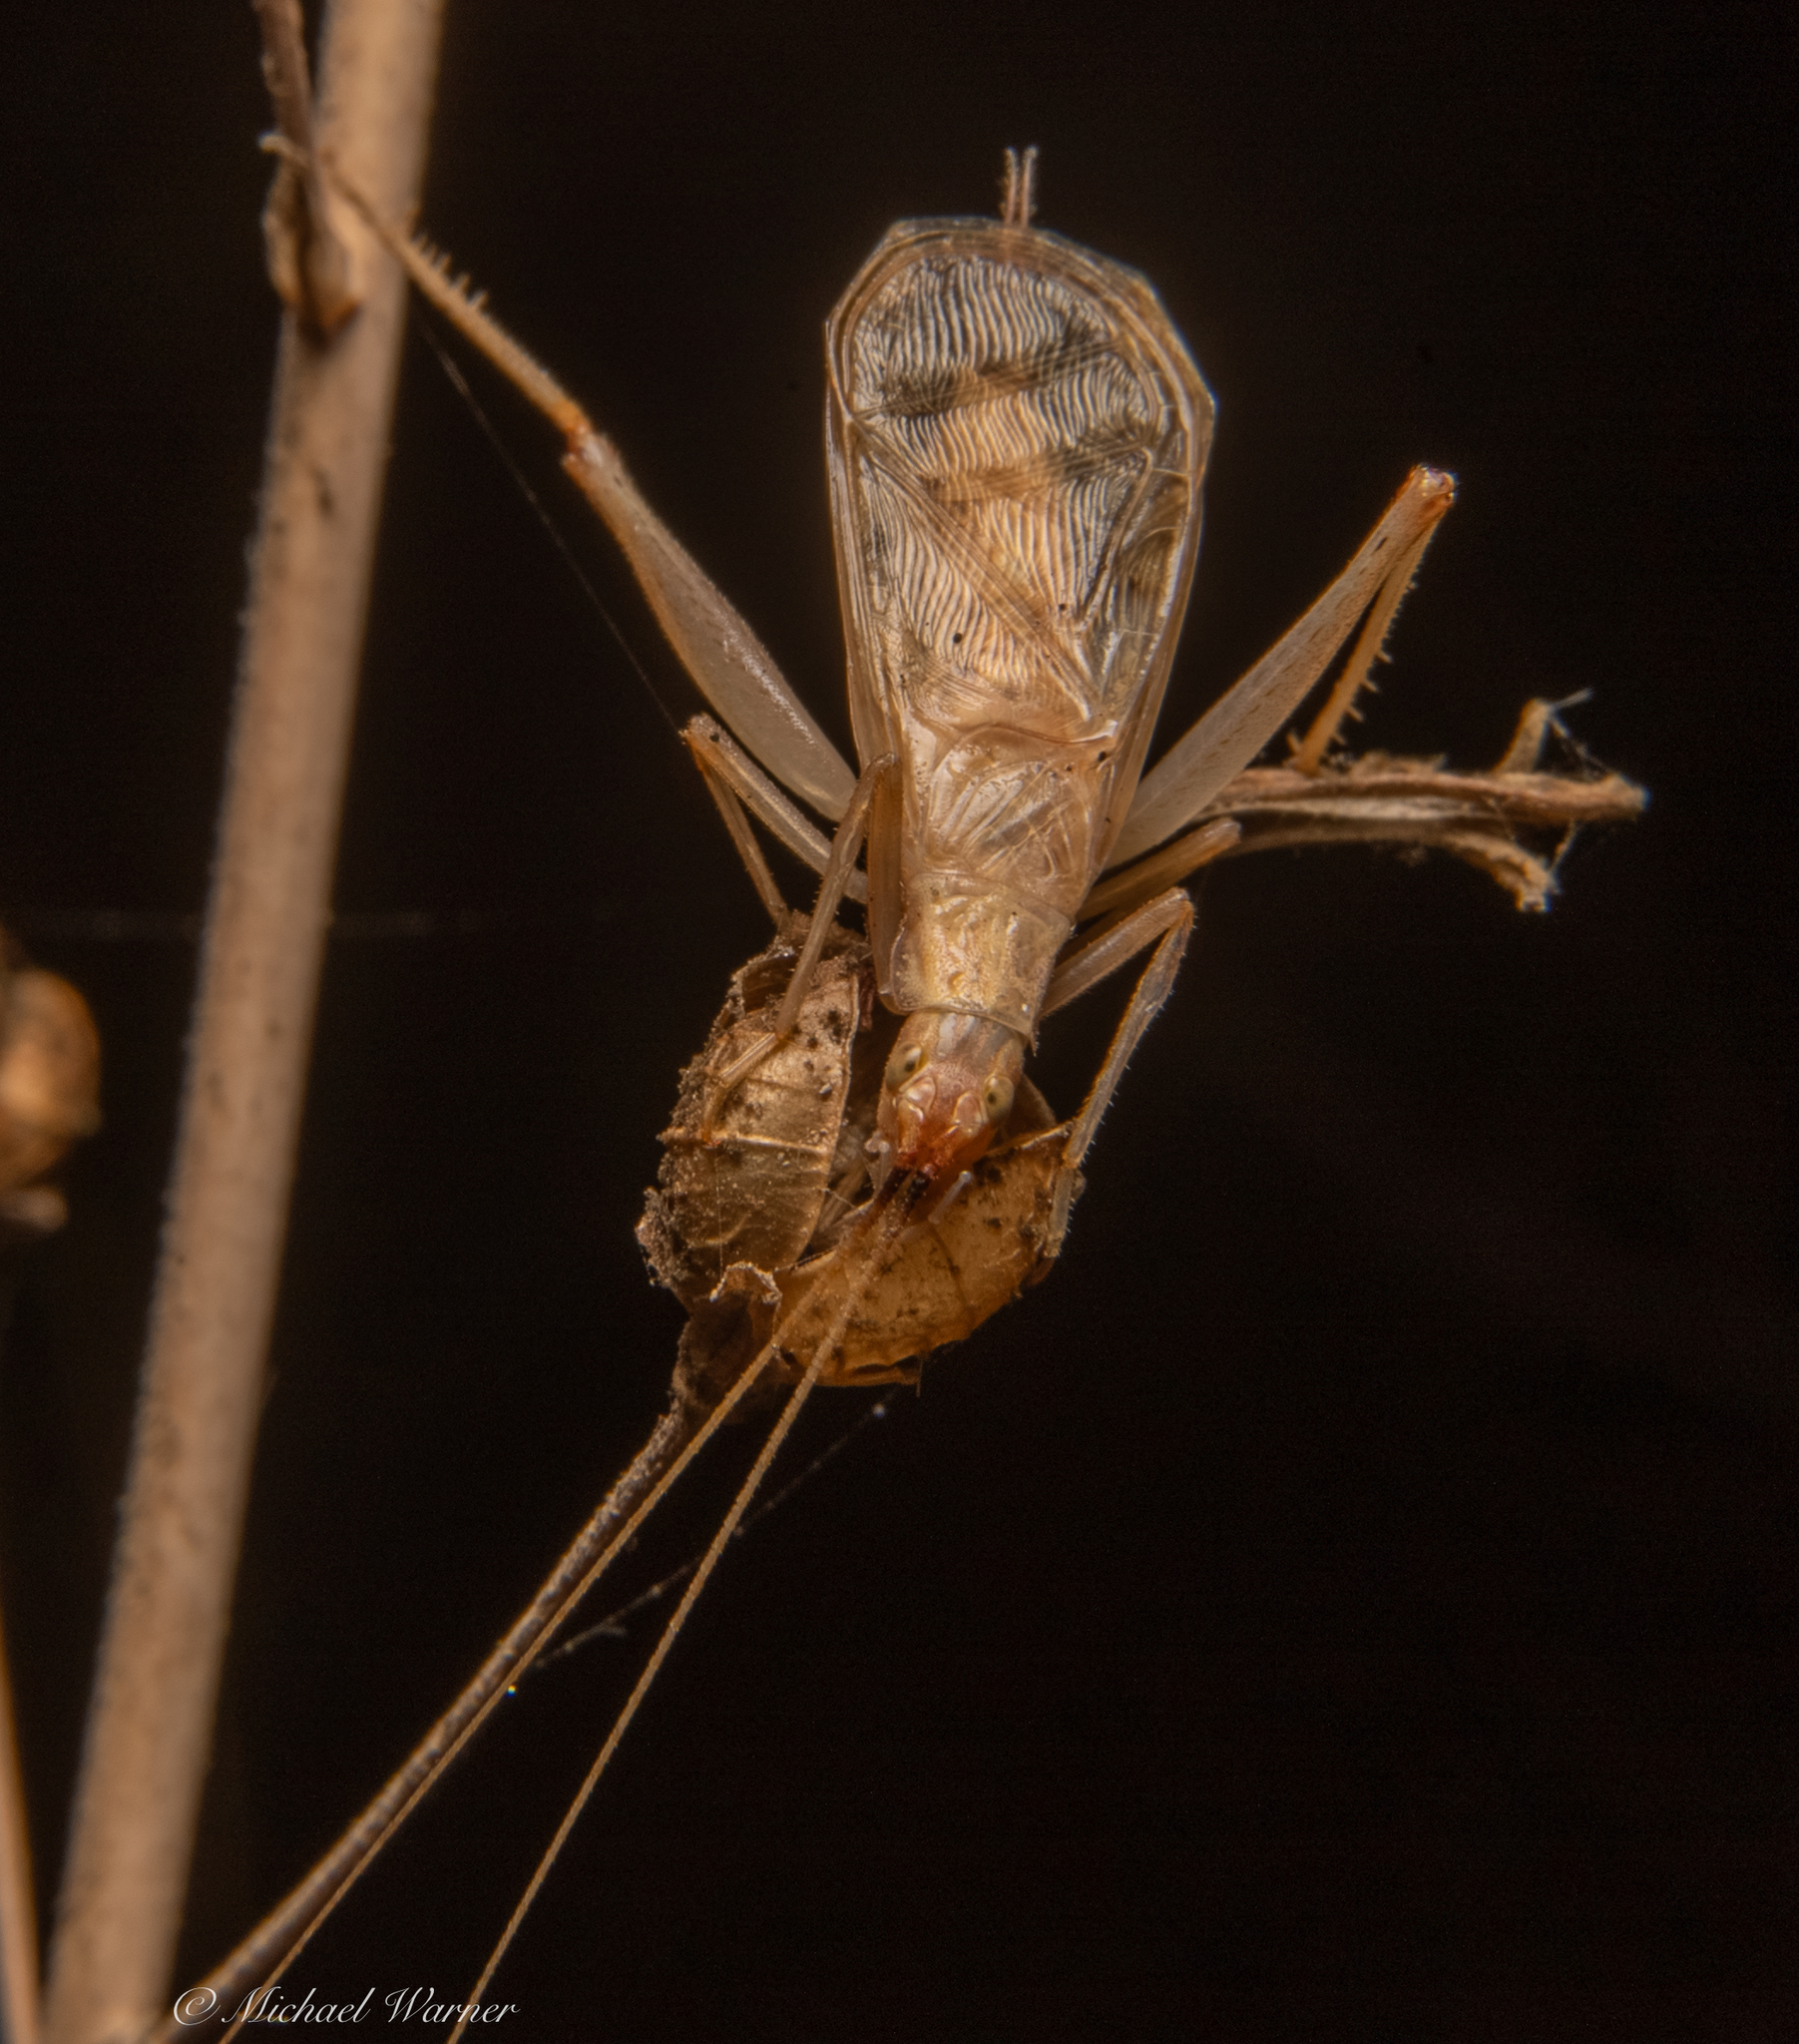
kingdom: Animalia
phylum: Arthropoda
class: Insecta
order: Orthoptera
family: Gryllidae
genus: Oecanthus
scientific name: Oecanthus californicus
